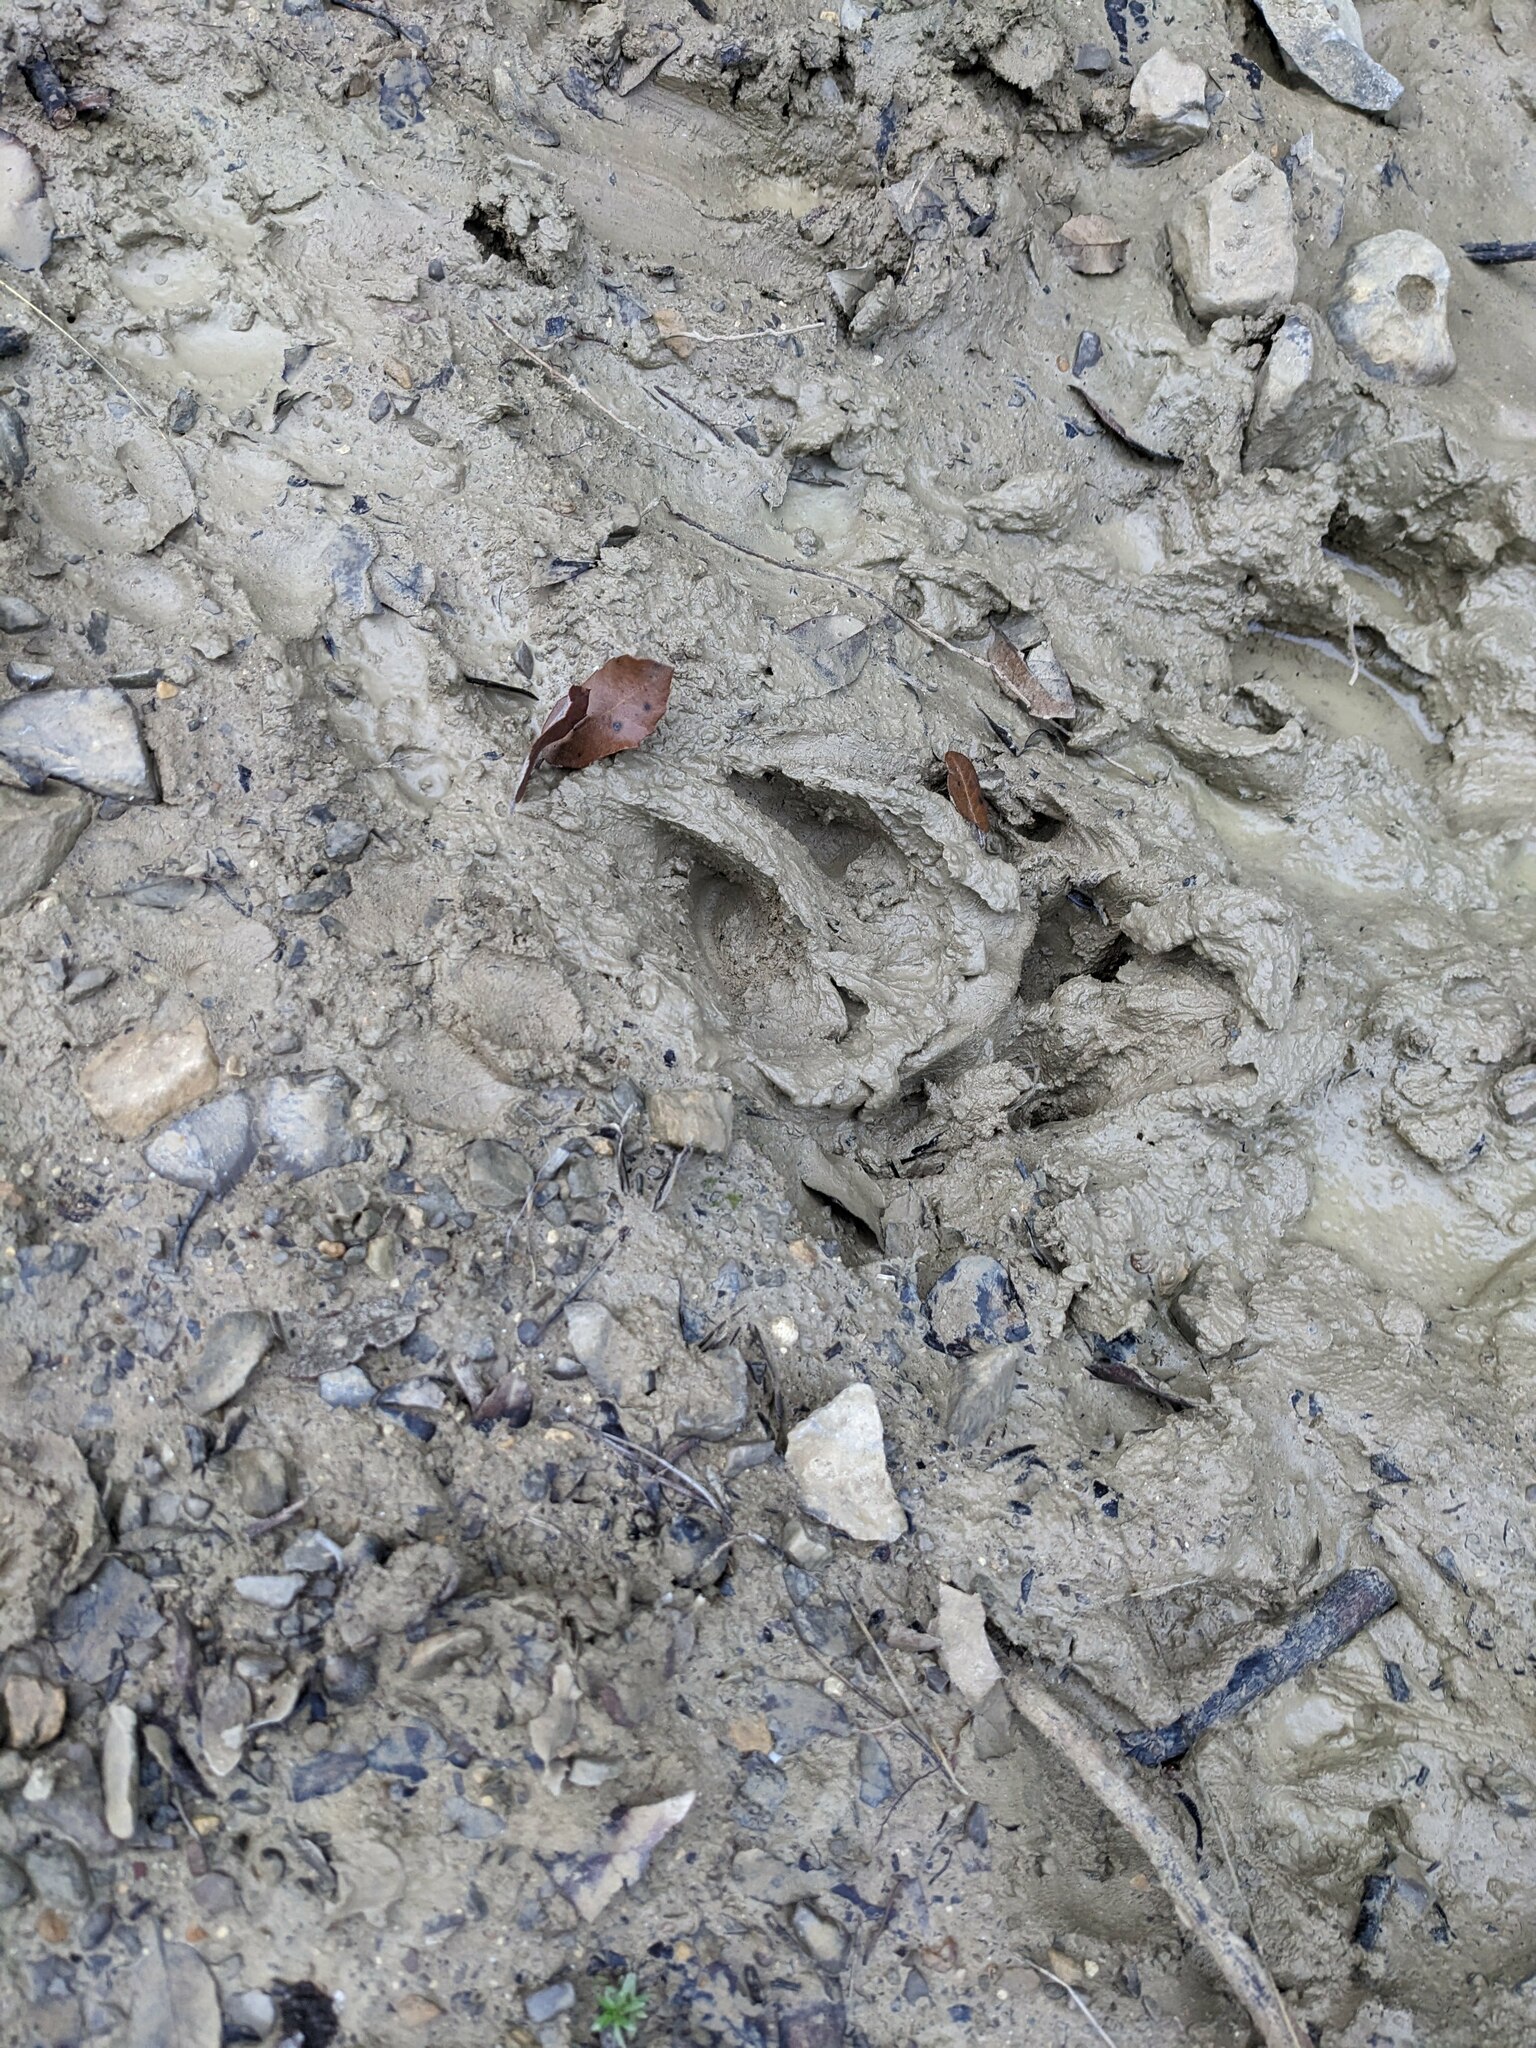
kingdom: Animalia
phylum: Chordata
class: Mammalia
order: Artiodactyla
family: Suidae
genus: Sus
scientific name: Sus scrofa
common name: Wild boar
